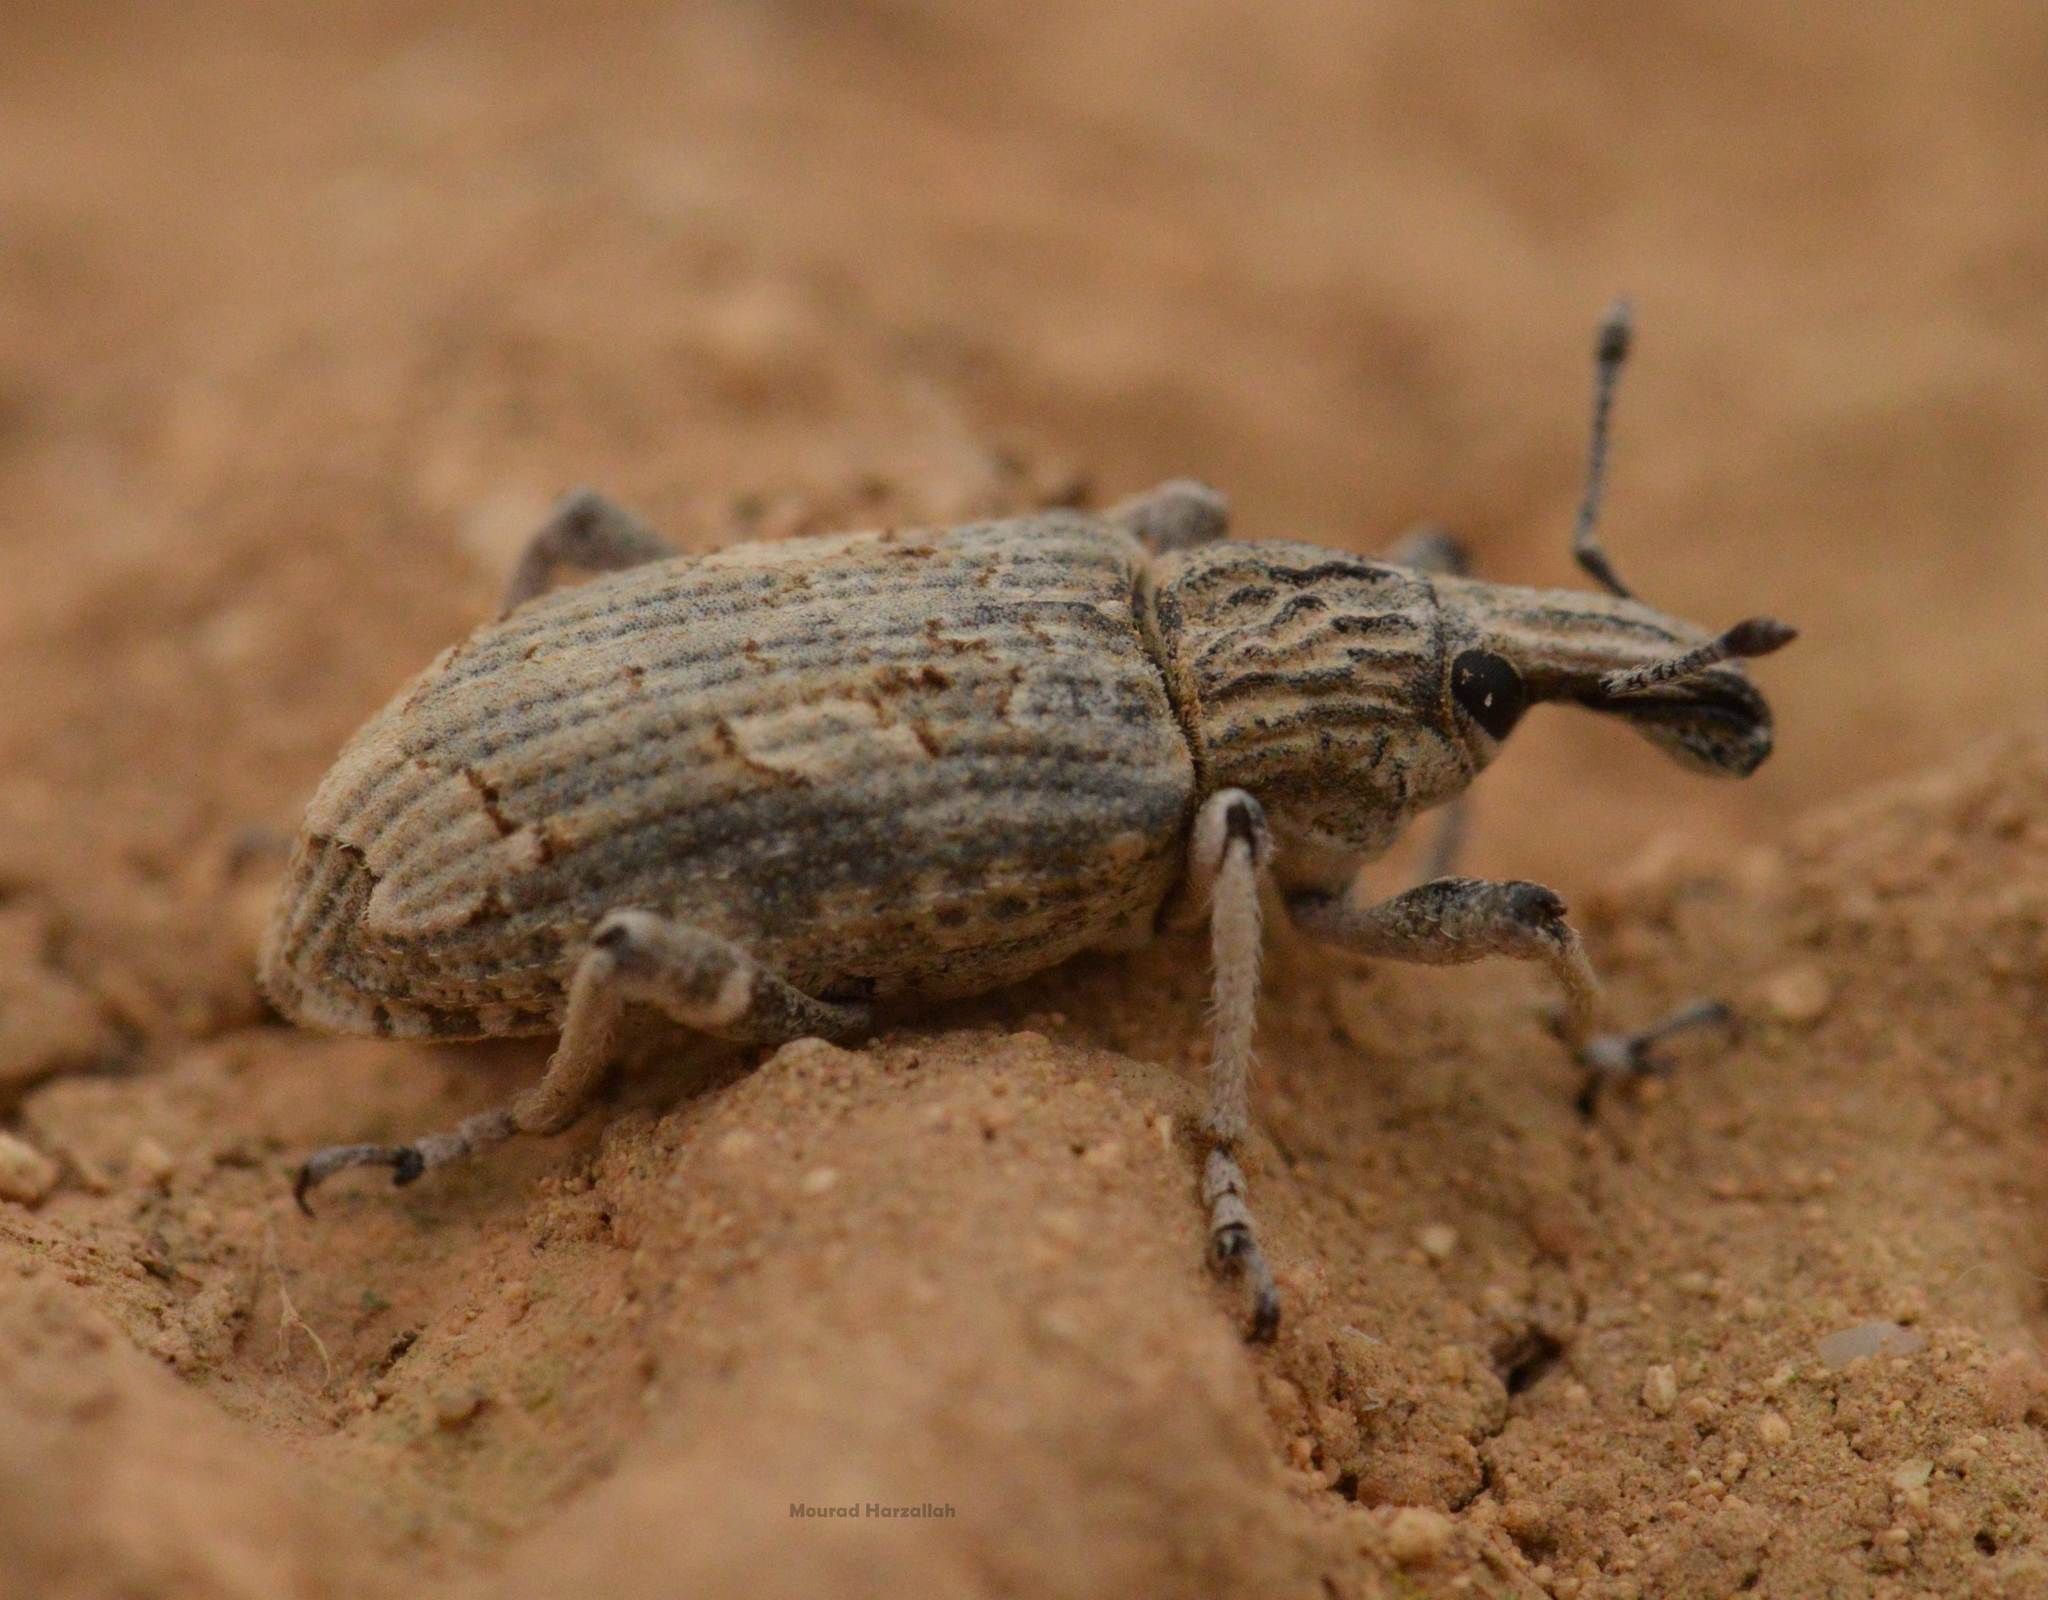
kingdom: Animalia
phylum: Arthropoda
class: Insecta
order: Coleoptera
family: Curculionidae
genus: Rhytideres
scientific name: Rhytideres plicatus
